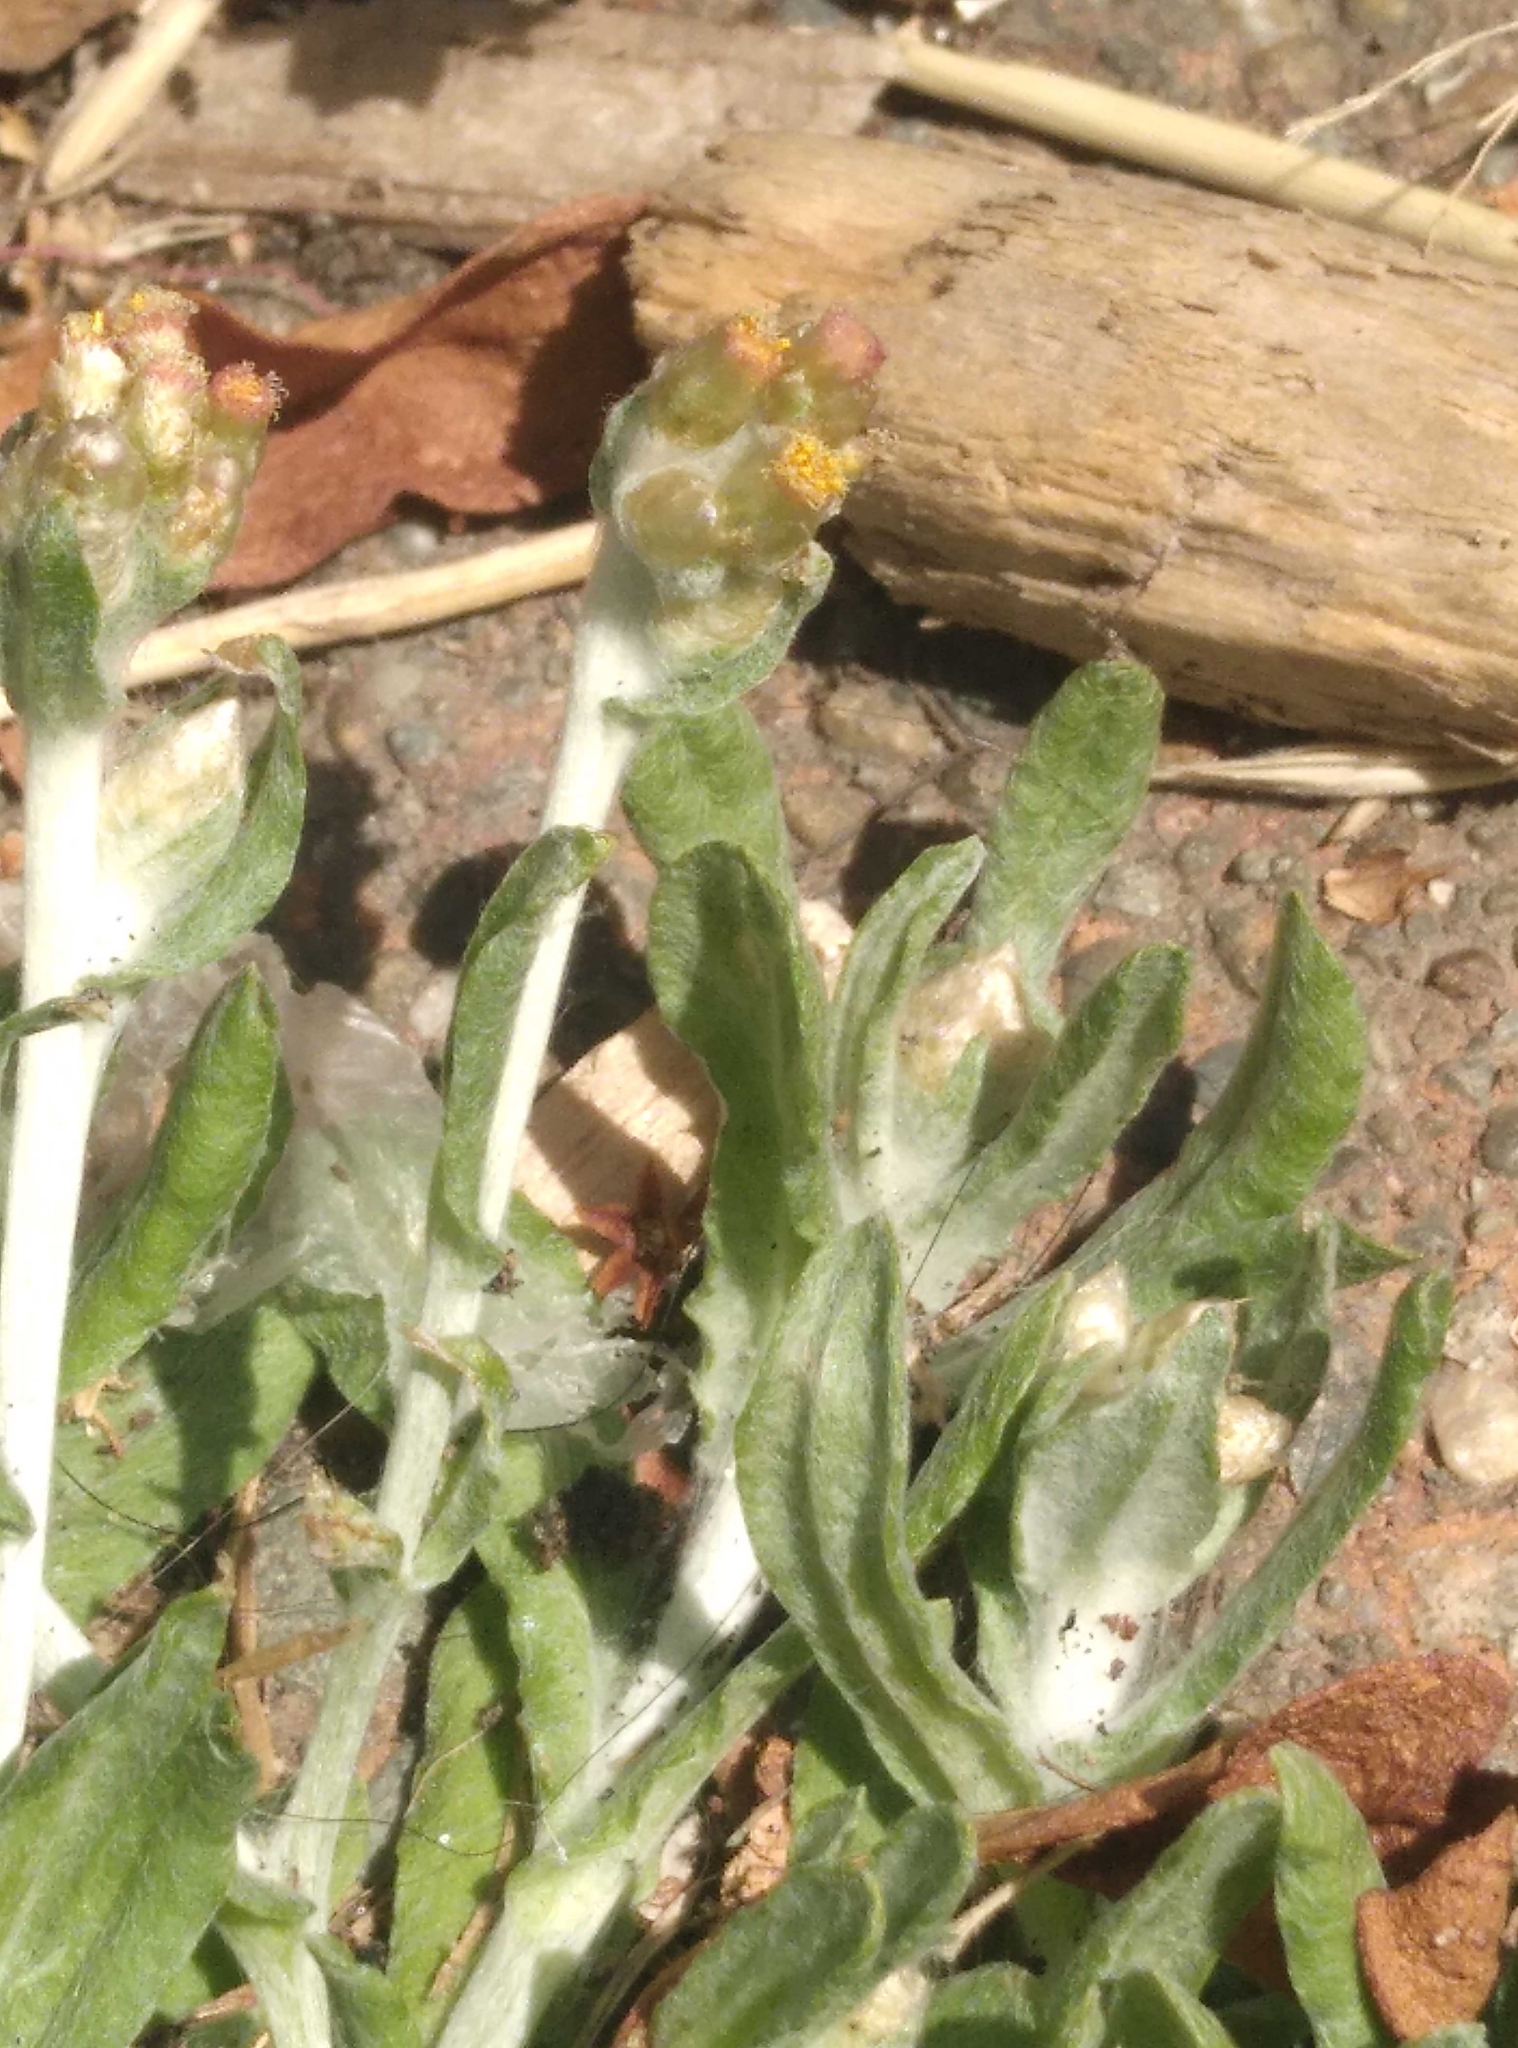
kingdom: Plantae
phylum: Tracheophyta
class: Magnoliopsida
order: Asterales
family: Asteraceae
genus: Helichrysum
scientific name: Helichrysum luteoalbum
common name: Daisy
